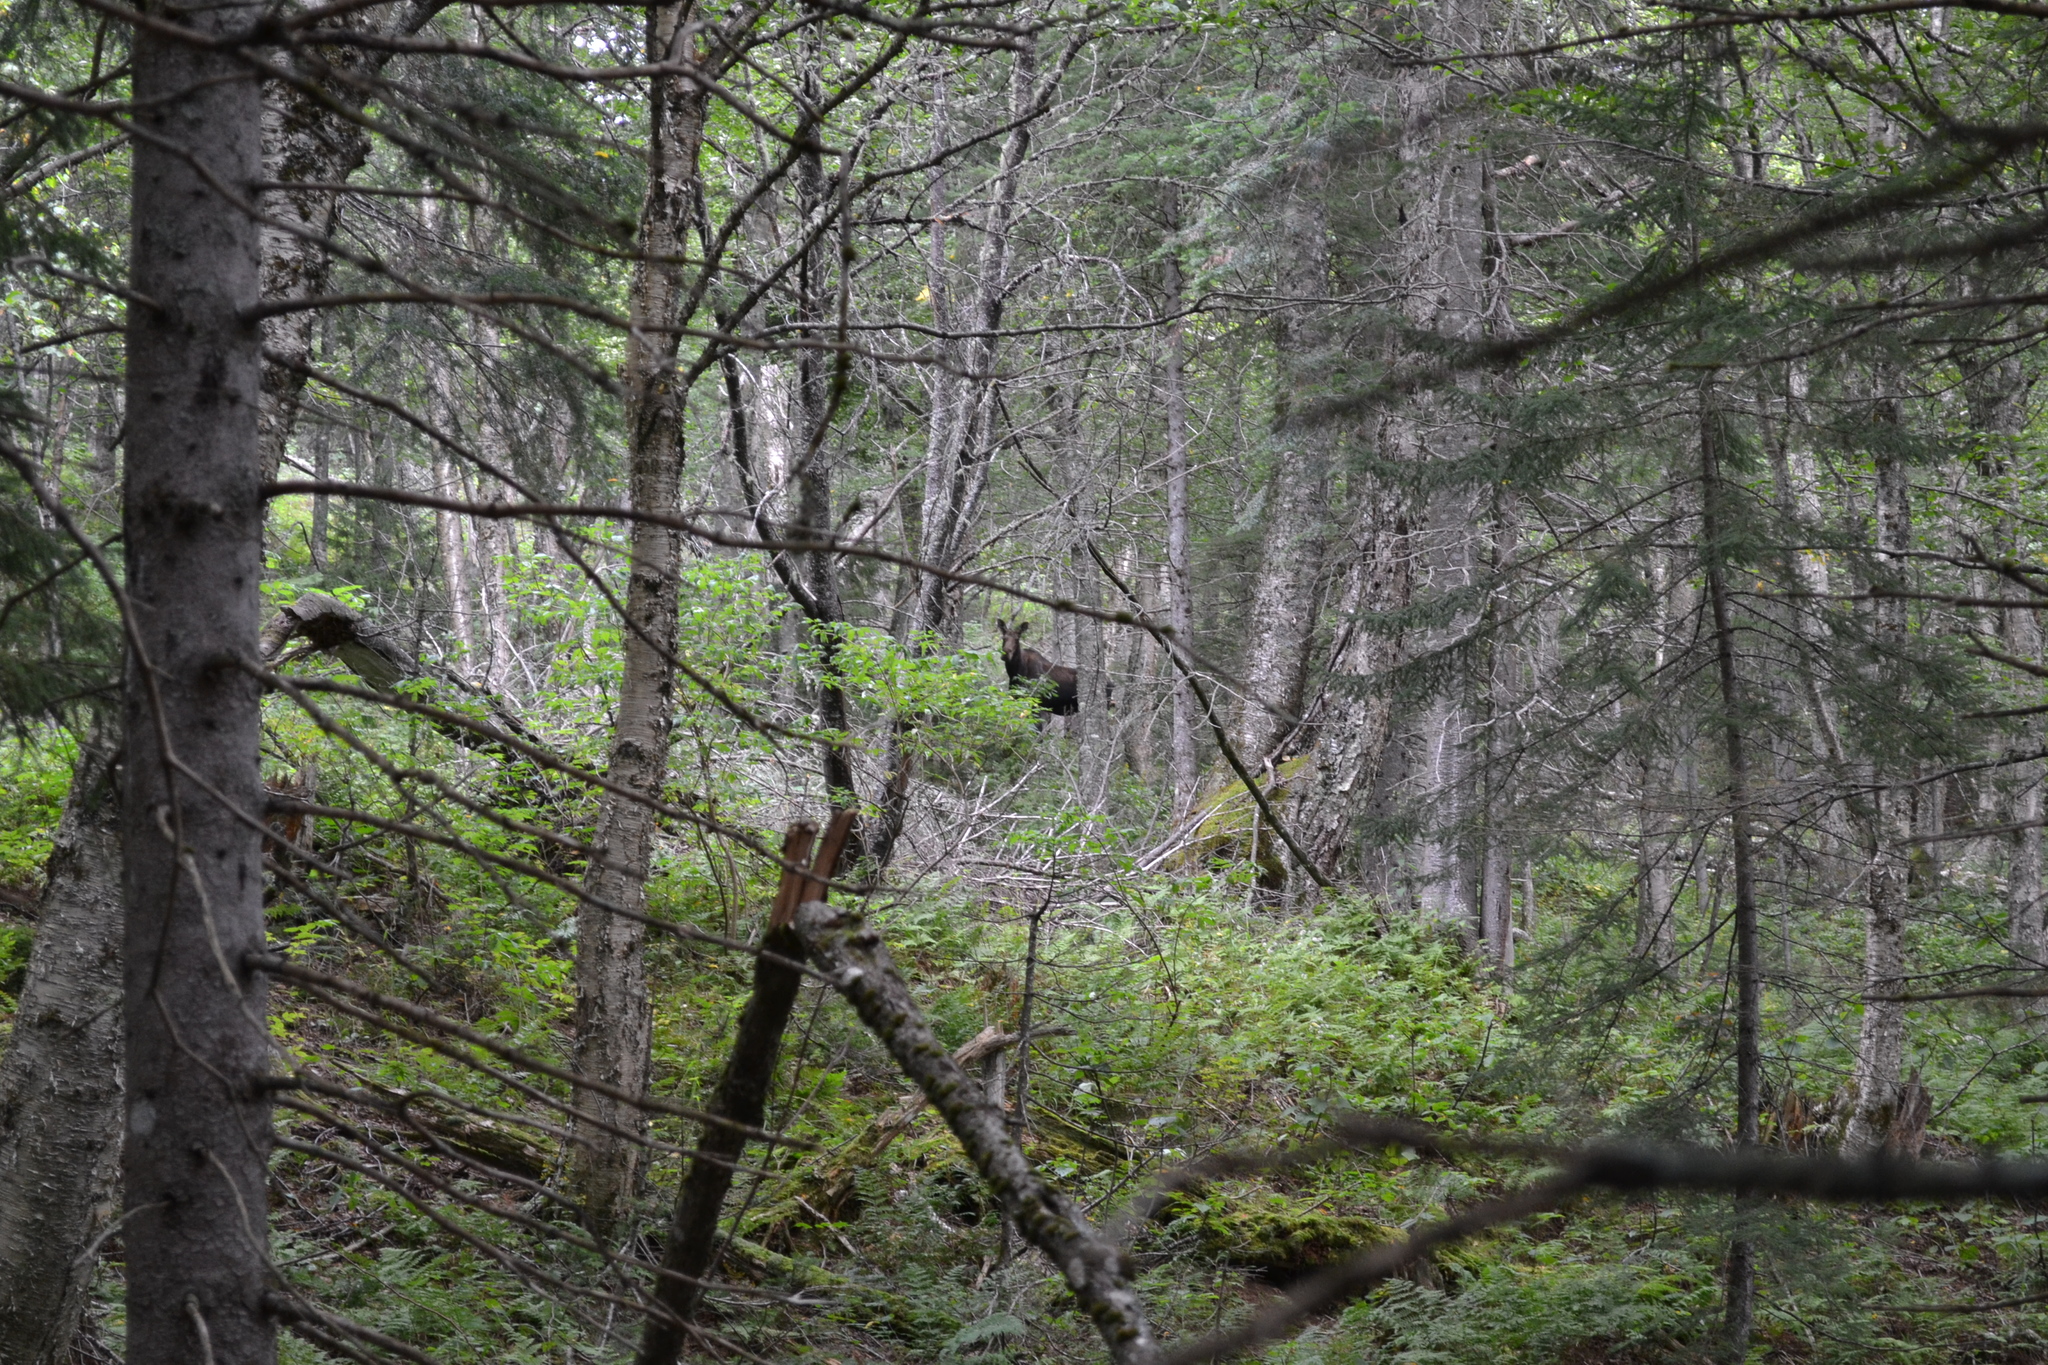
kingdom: Animalia
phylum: Chordata
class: Mammalia
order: Artiodactyla
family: Cervidae
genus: Alces
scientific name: Alces alces
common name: Moose
